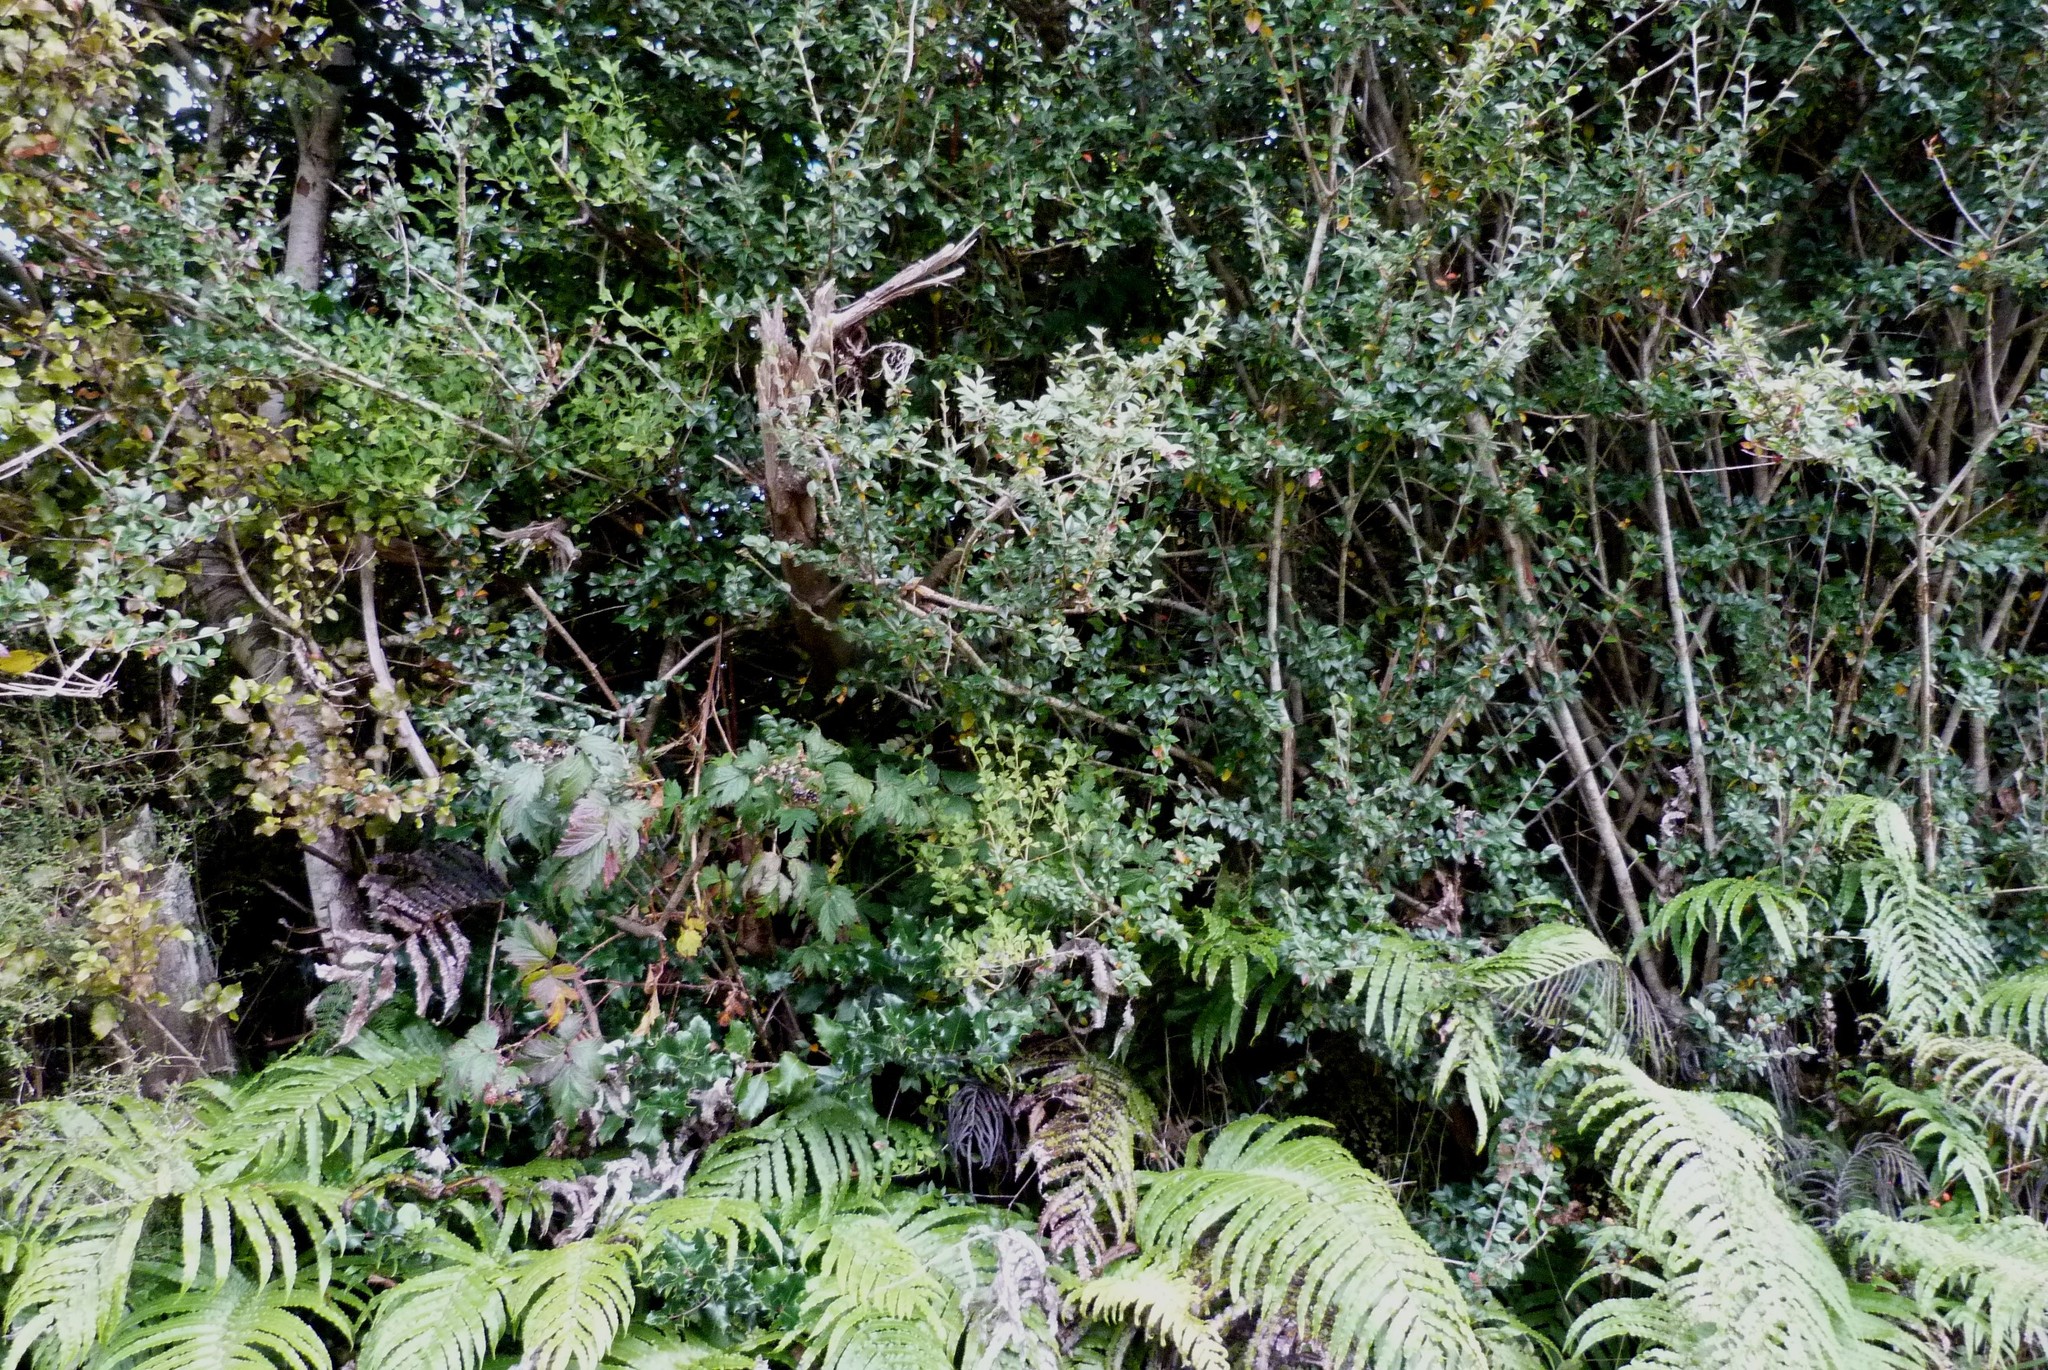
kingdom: Plantae
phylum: Tracheophyta
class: Magnoliopsida
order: Aquifoliales
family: Aquifoliaceae
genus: Ilex
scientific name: Ilex aquifolium
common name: English holly
